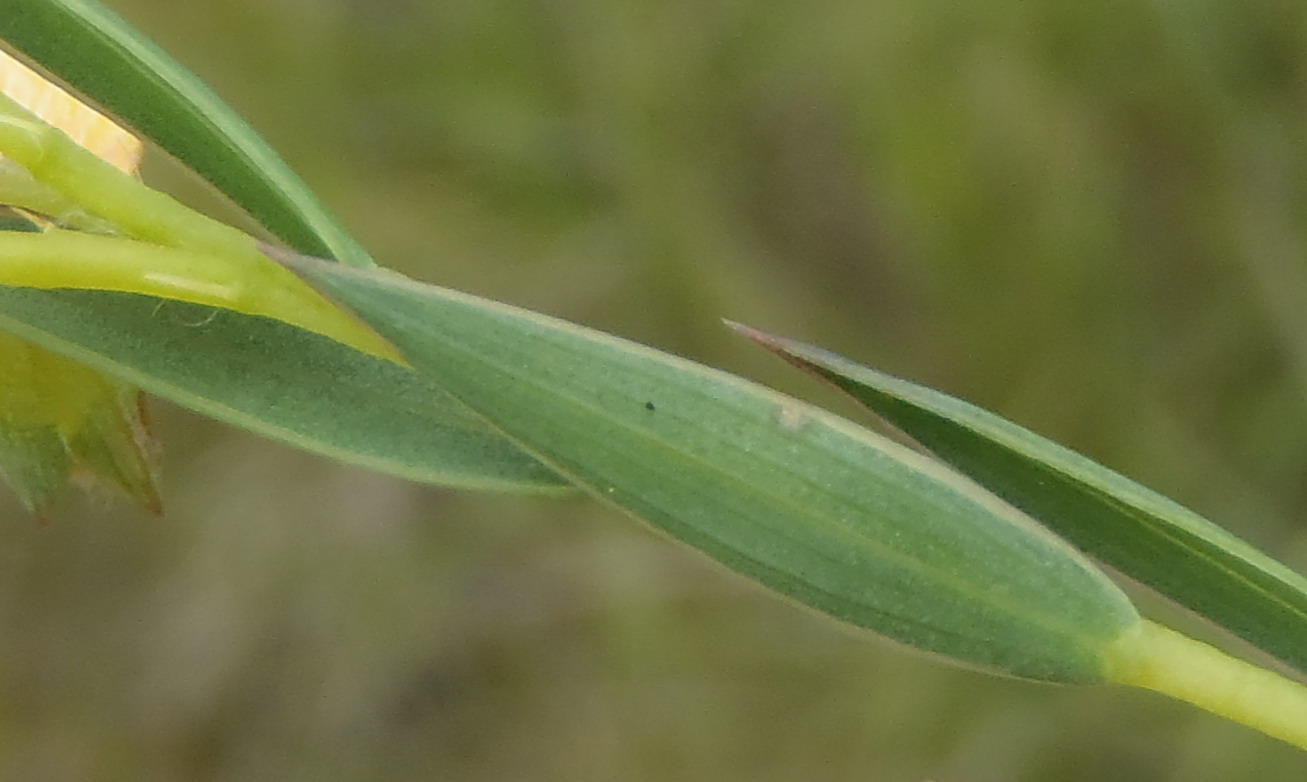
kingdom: Plantae
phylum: Tracheophyta
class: Magnoliopsida
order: Fabales
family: Fabaceae
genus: Aspalathus
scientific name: Aspalathus angustifolia
